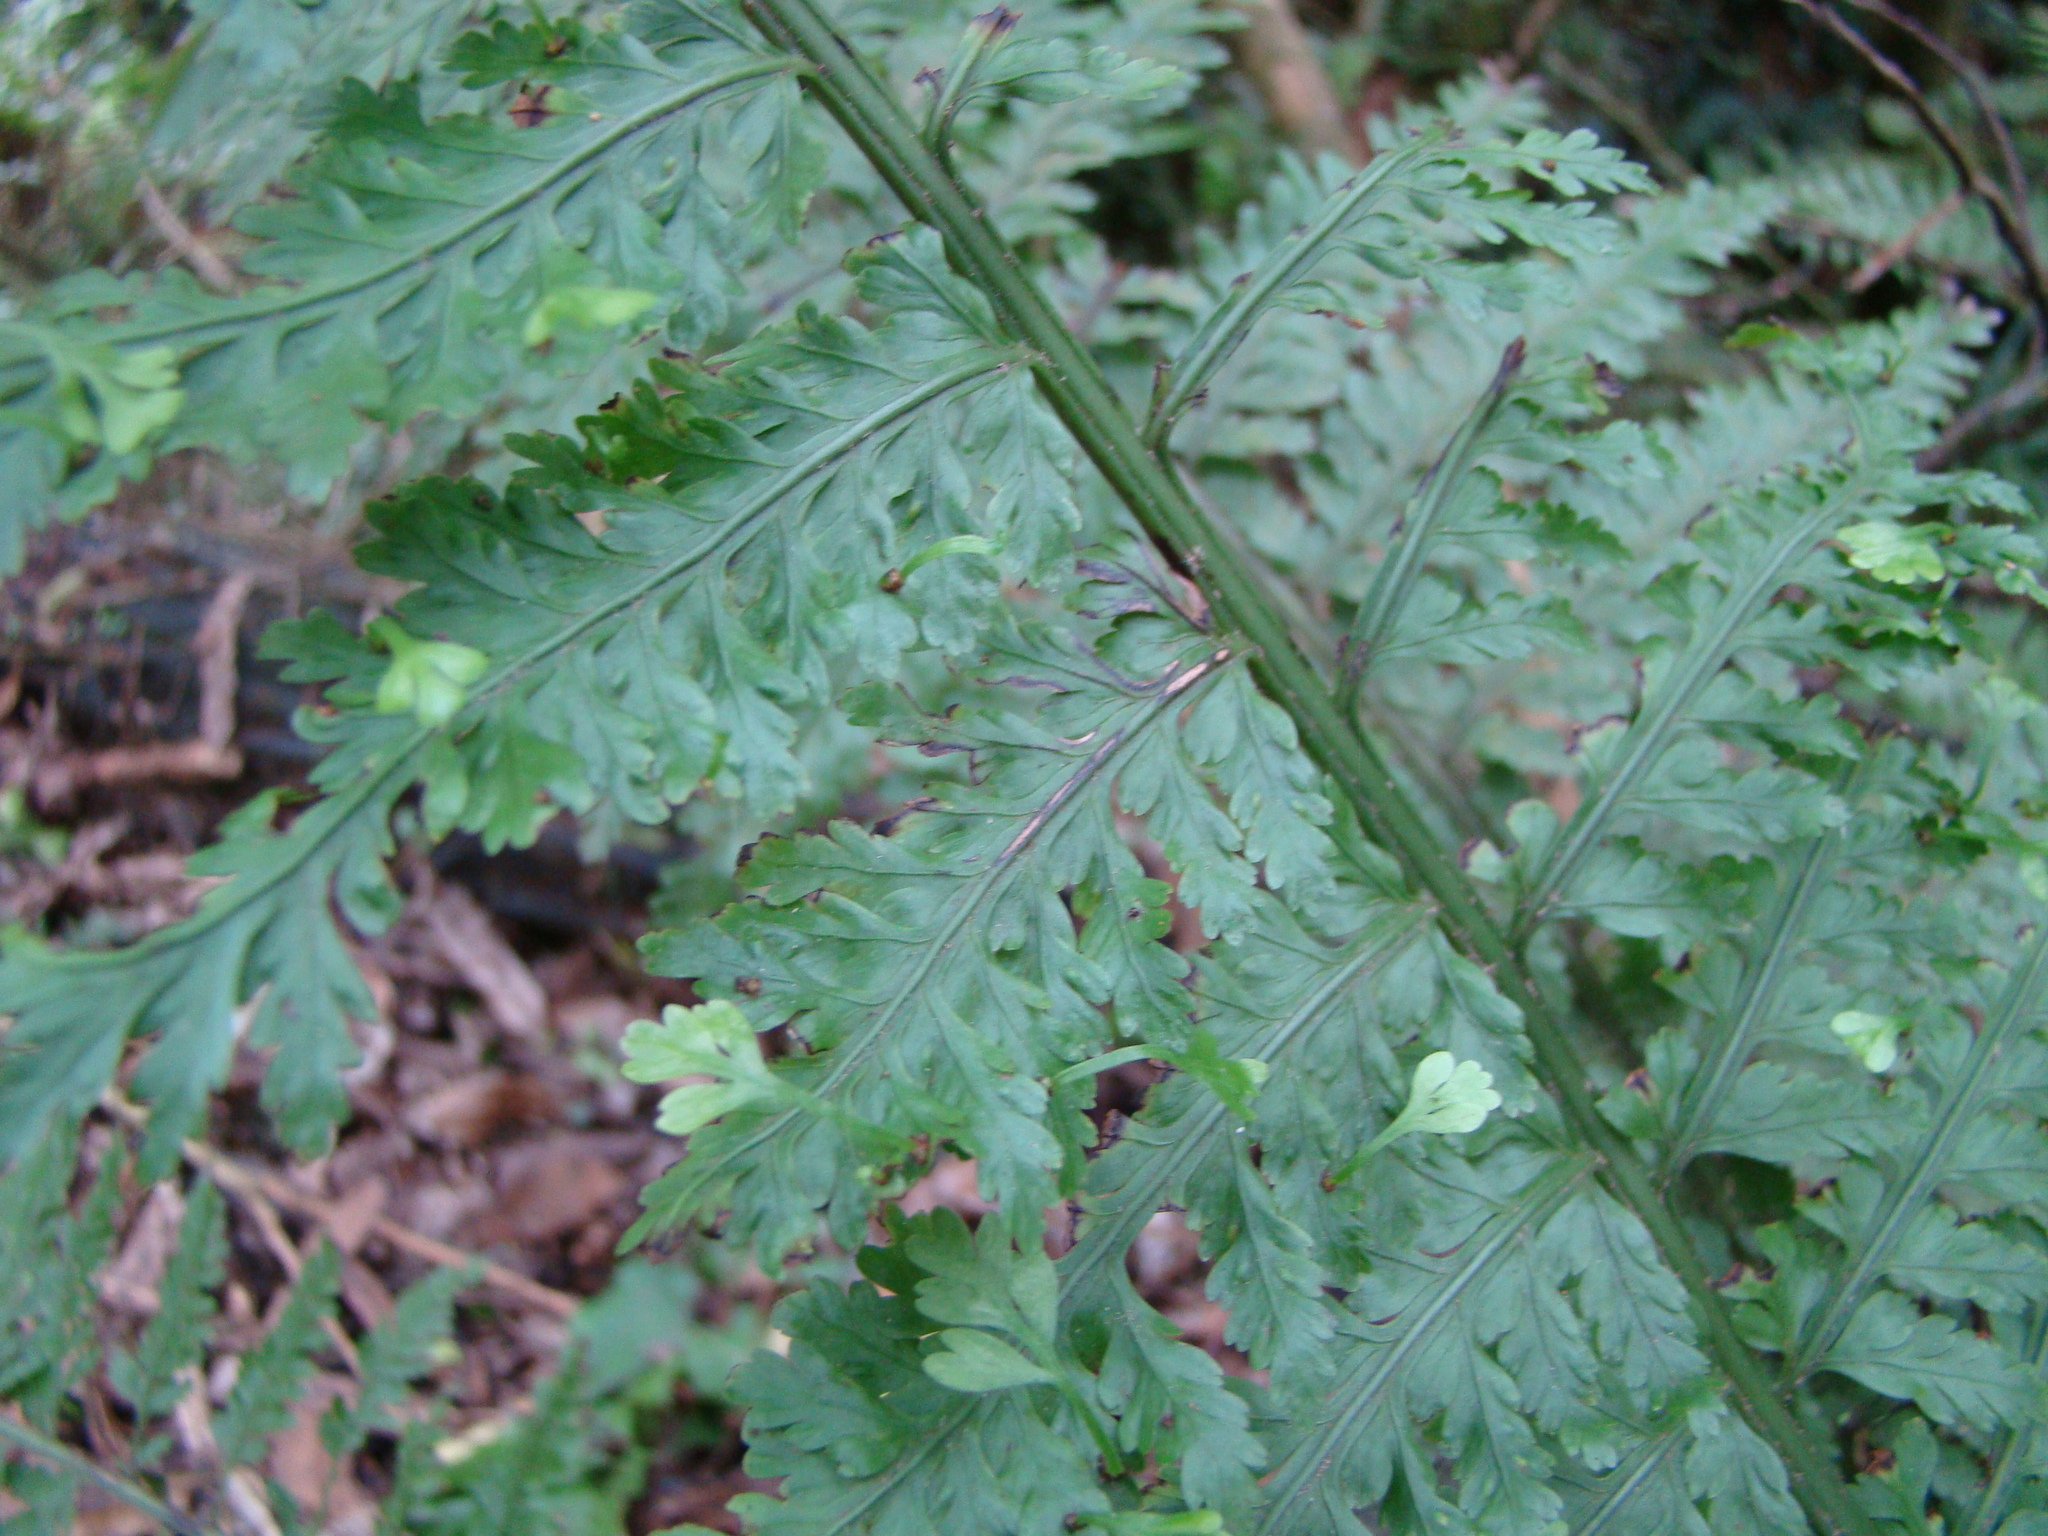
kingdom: Plantae
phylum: Tracheophyta
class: Polypodiopsida
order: Polypodiales
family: Aspleniaceae
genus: Asplenium
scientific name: Asplenium bulbiferum
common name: Mother fern
